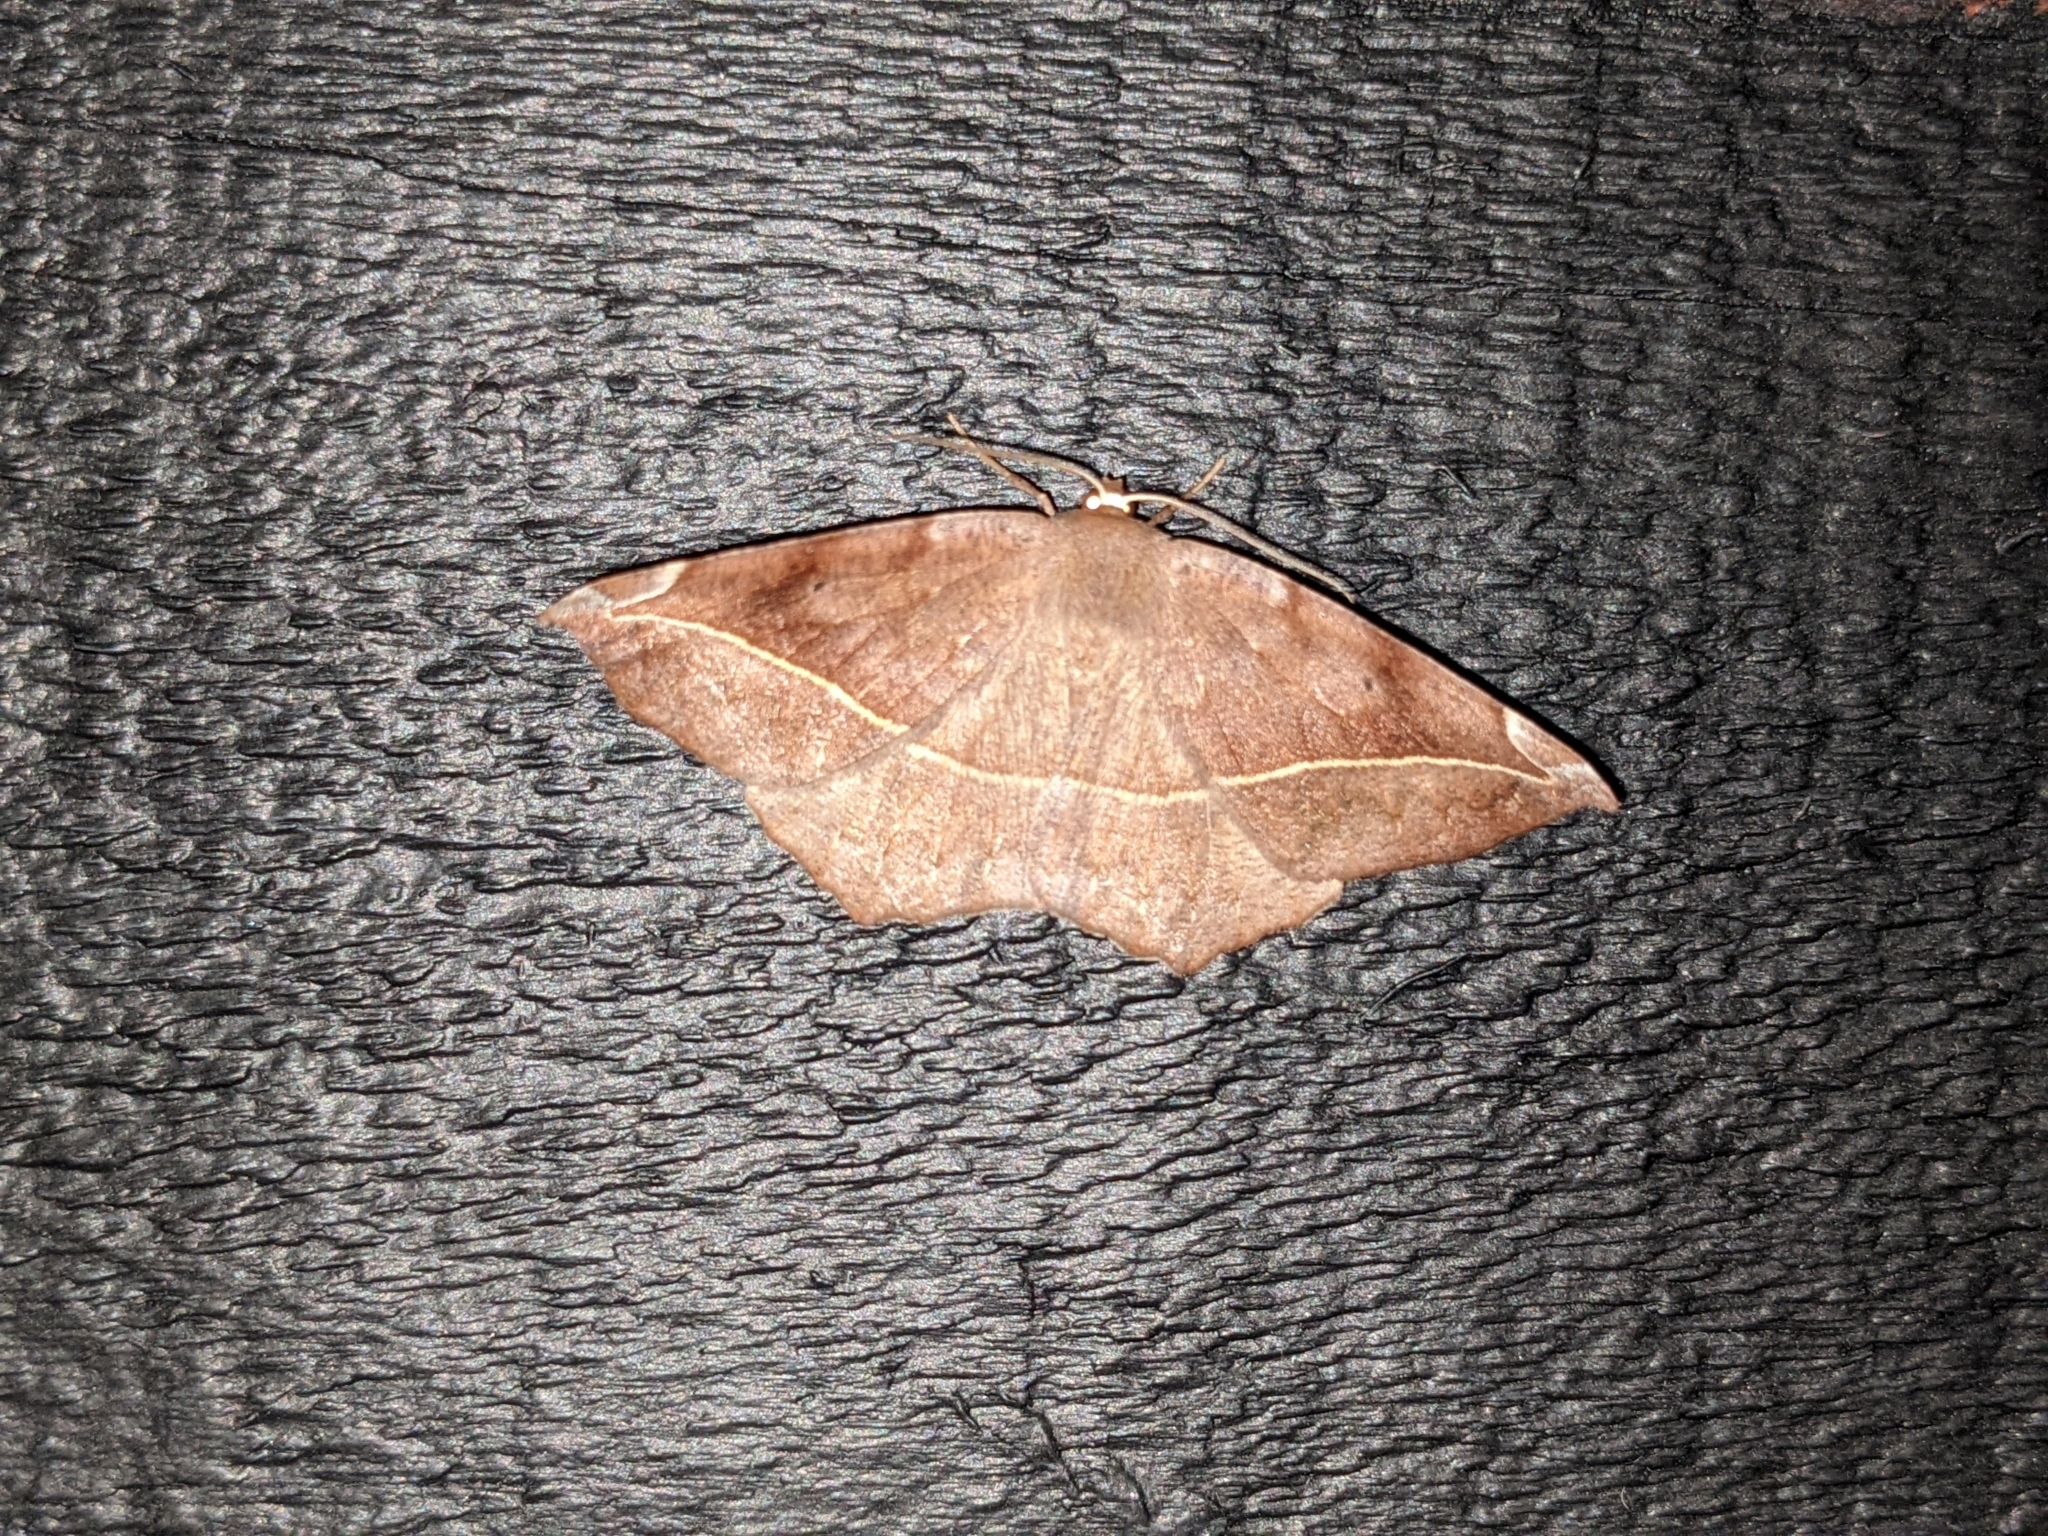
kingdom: Animalia
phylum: Arthropoda
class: Insecta
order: Lepidoptera
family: Geometridae
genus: Eutrapela
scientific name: Eutrapela clemataria
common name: Curved-toothed geometer
